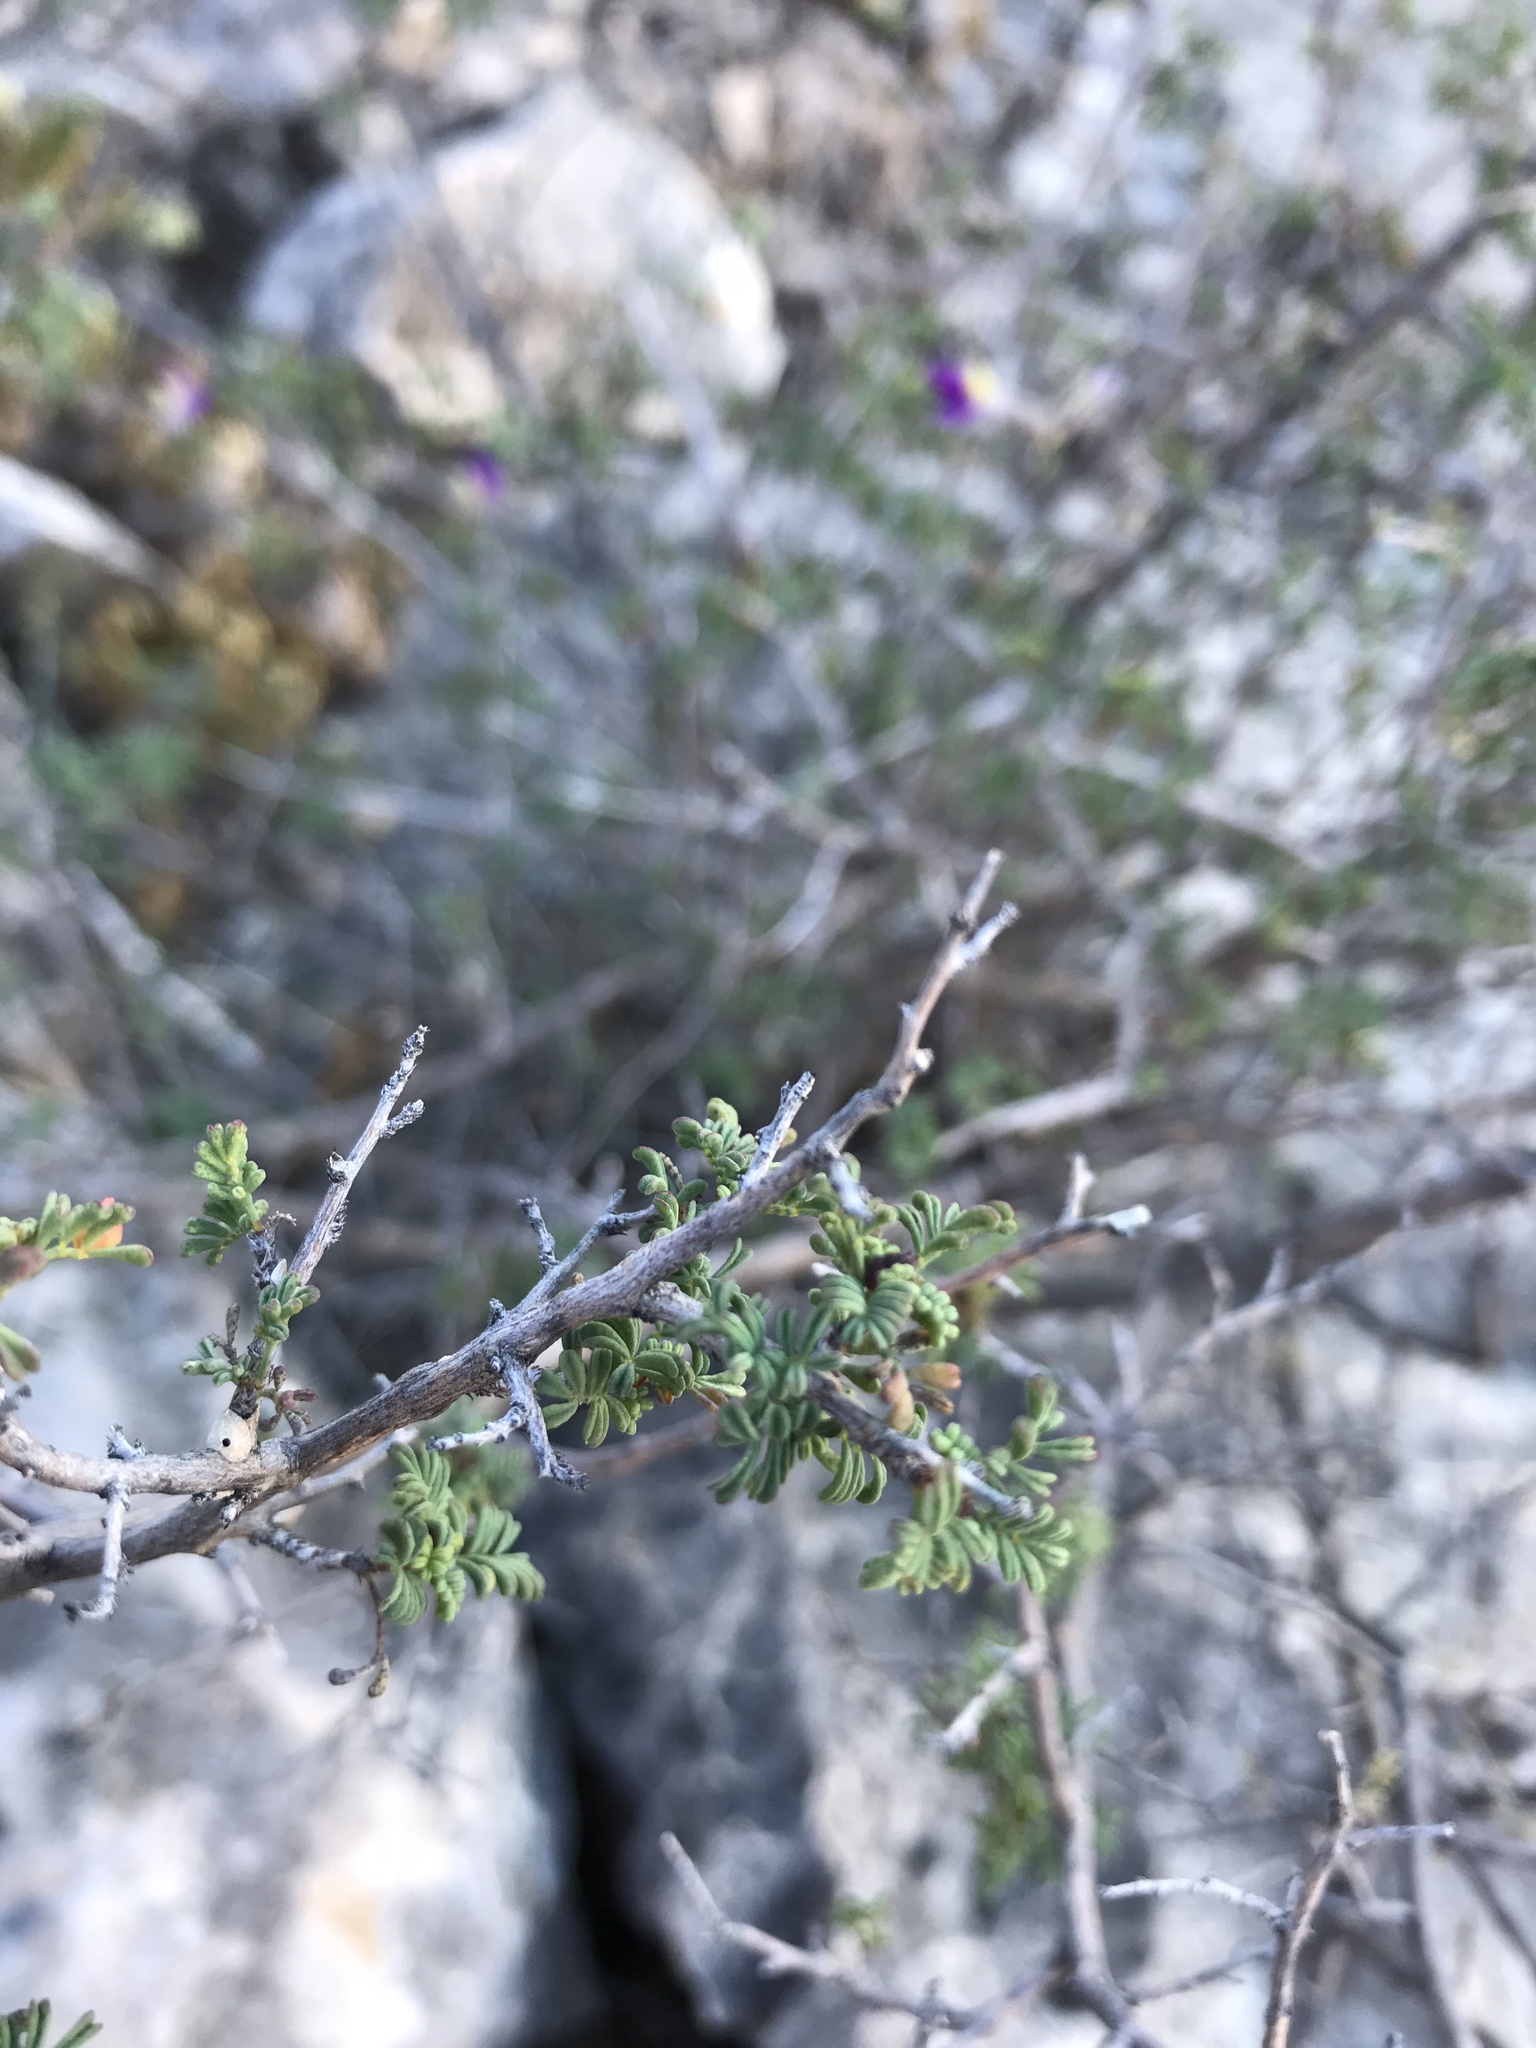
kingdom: Plantae
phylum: Tracheophyta
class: Magnoliopsida
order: Fabales
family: Fabaceae
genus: Dalea
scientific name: Dalea formosa
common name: Feather-plume dalea
